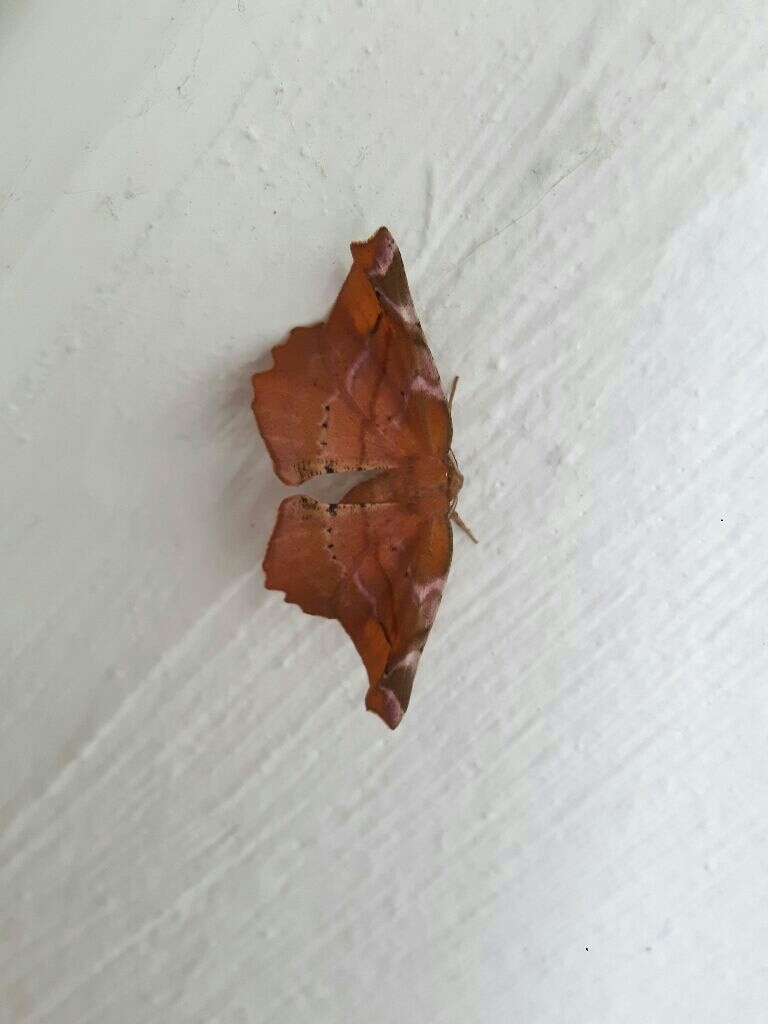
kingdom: Animalia
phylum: Arthropoda
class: Insecta
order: Lepidoptera
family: Geometridae
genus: Apeira
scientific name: Apeira syringaria
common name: Lilac beauty
